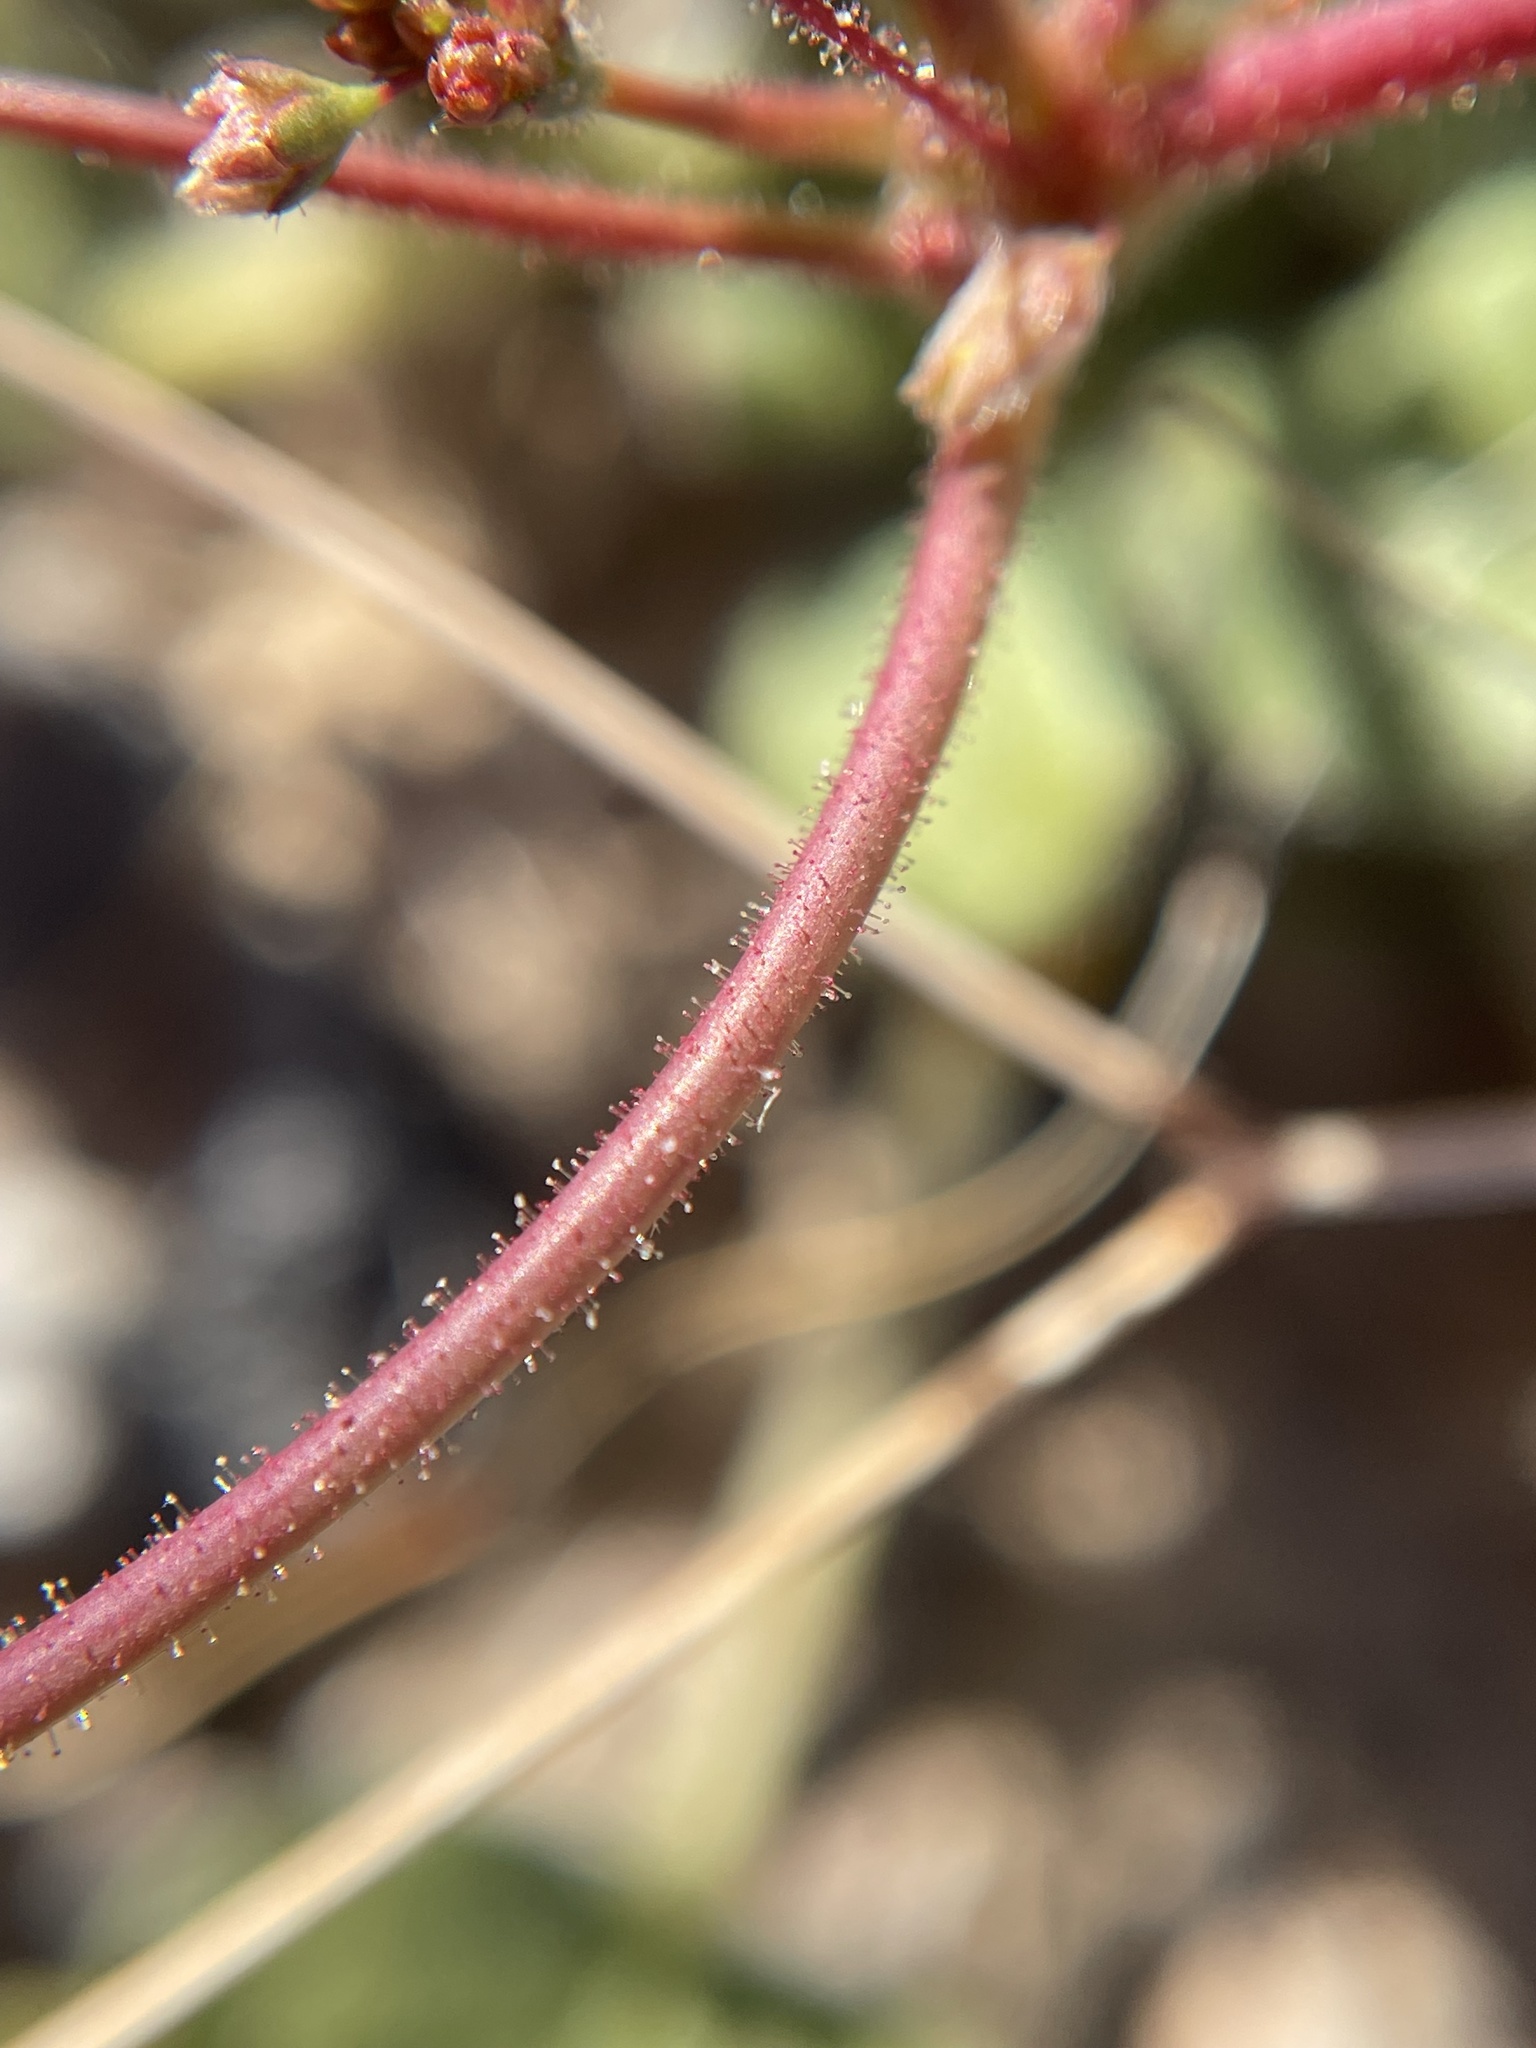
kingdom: Plantae
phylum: Tracheophyta
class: Magnoliopsida
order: Caryophyllales
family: Polygonaceae
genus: Eriogonum
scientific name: Eriogonum contiguum
